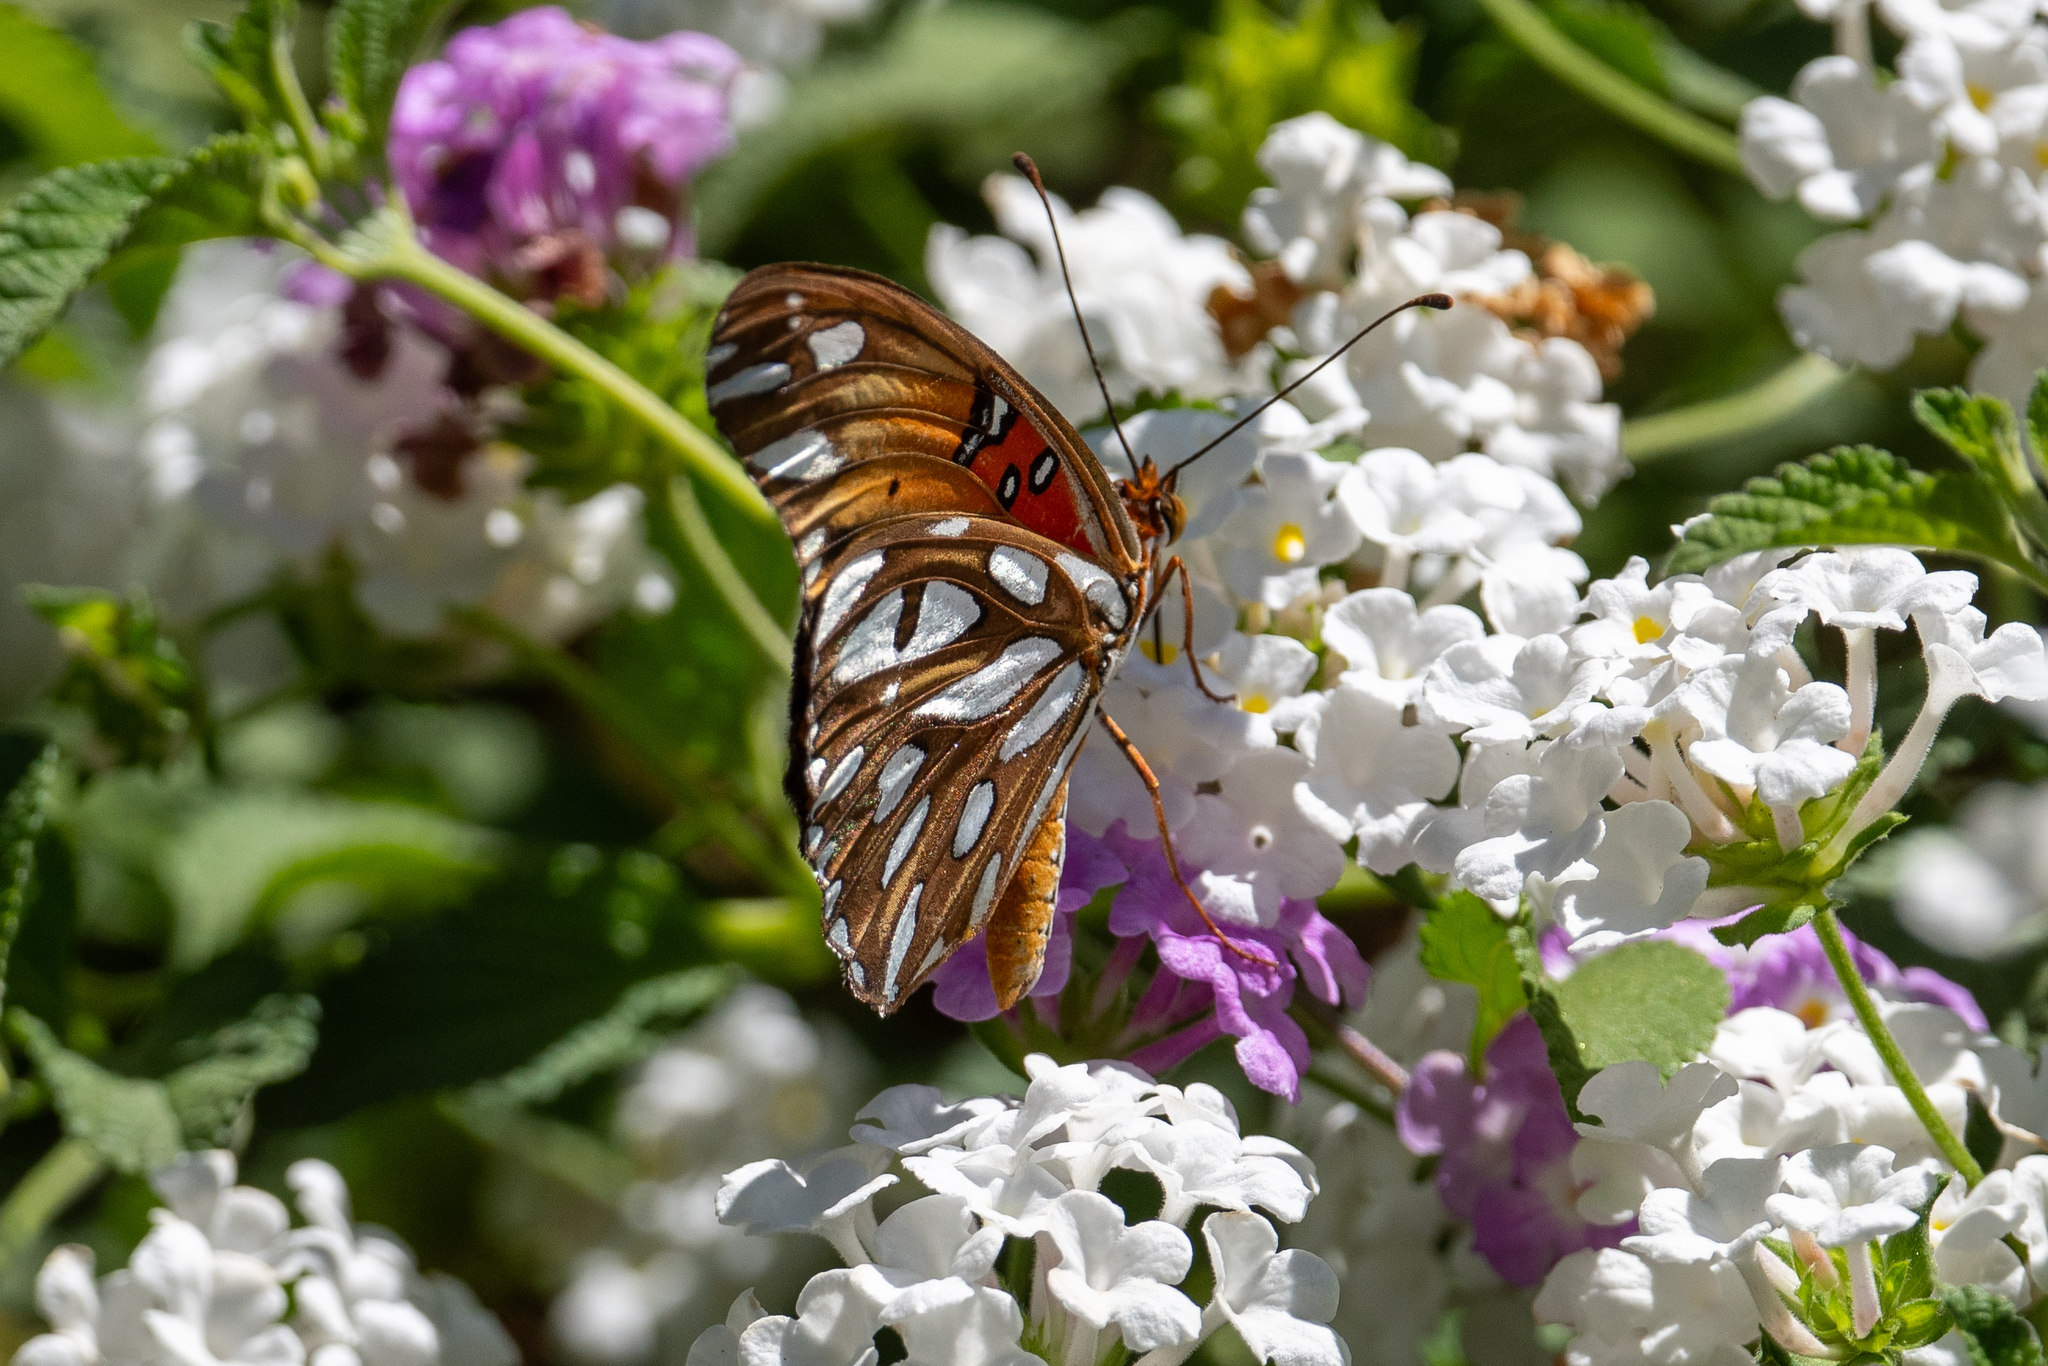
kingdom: Animalia
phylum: Arthropoda
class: Insecta
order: Lepidoptera
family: Nymphalidae
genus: Dione
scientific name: Dione vanillae
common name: Gulf fritillary
